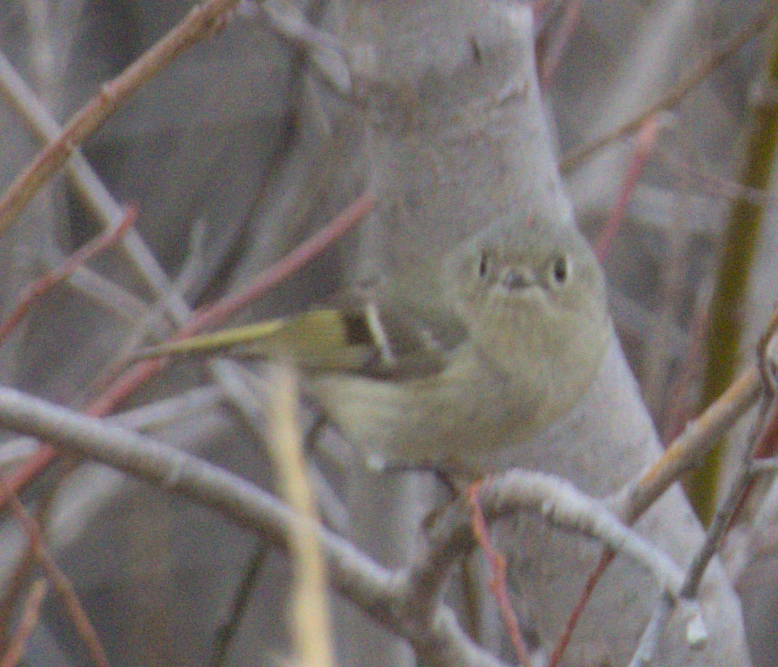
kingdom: Animalia
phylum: Chordata
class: Aves
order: Passeriformes
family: Regulidae
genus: Regulus
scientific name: Regulus calendula
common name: Ruby-crowned kinglet
